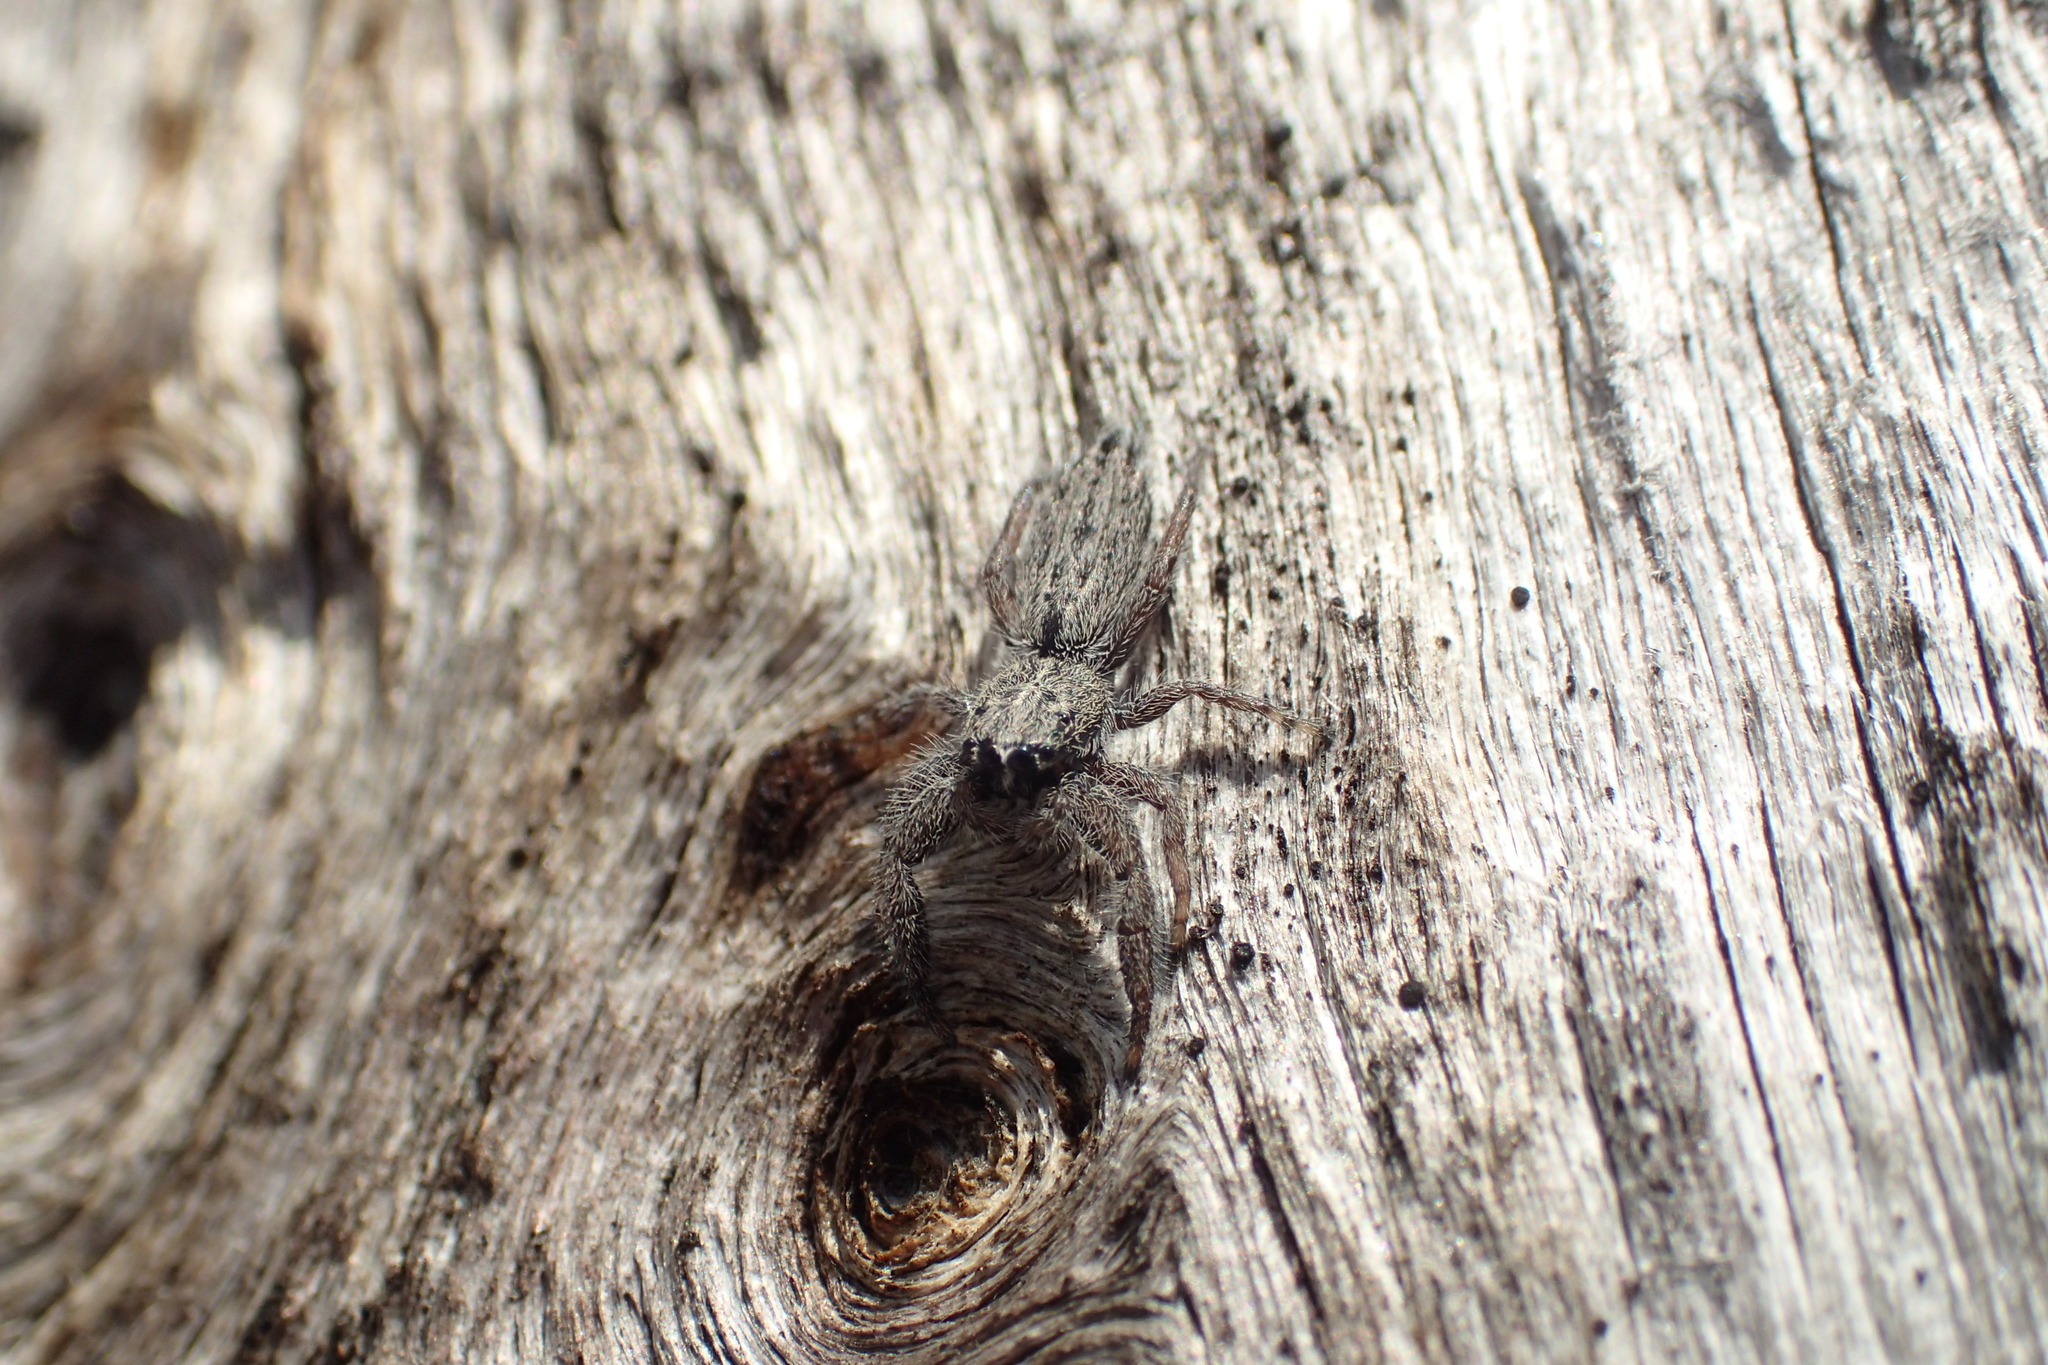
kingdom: Animalia
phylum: Arthropoda
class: Arachnida
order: Araneae
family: Salticidae
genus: Holoplatys
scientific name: Holoplatys apressus
